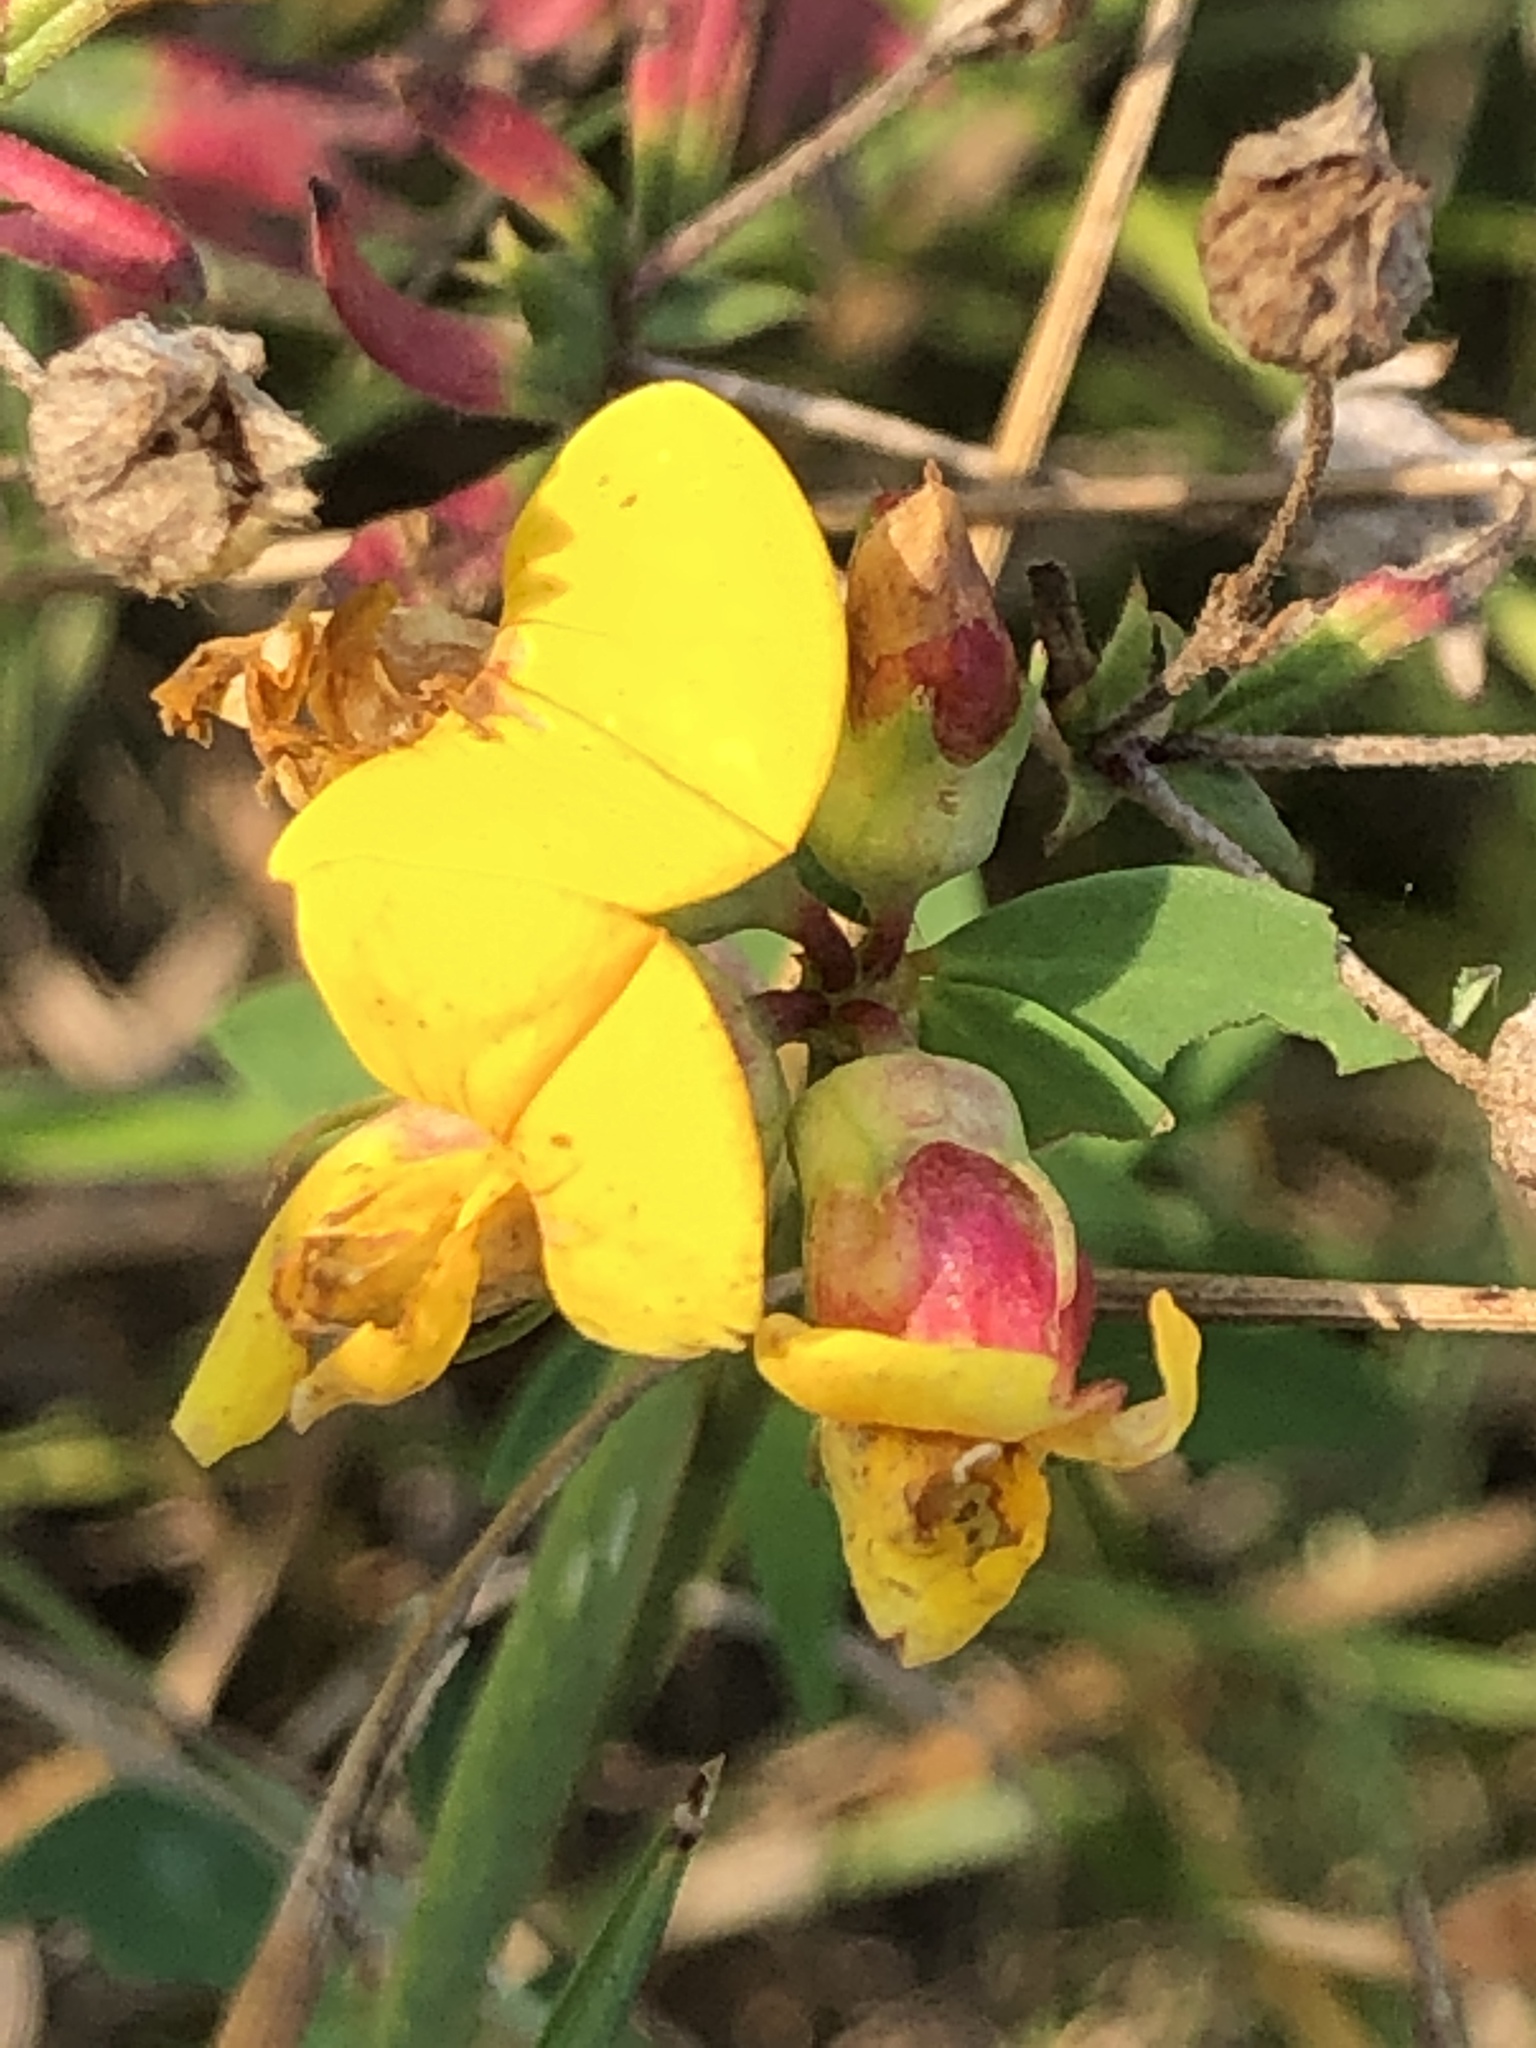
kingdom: Plantae
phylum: Tracheophyta
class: Magnoliopsida
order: Fabales
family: Fabaceae
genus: Lotus
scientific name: Lotus corniculatus
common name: Common bird's-foot-trefoil
